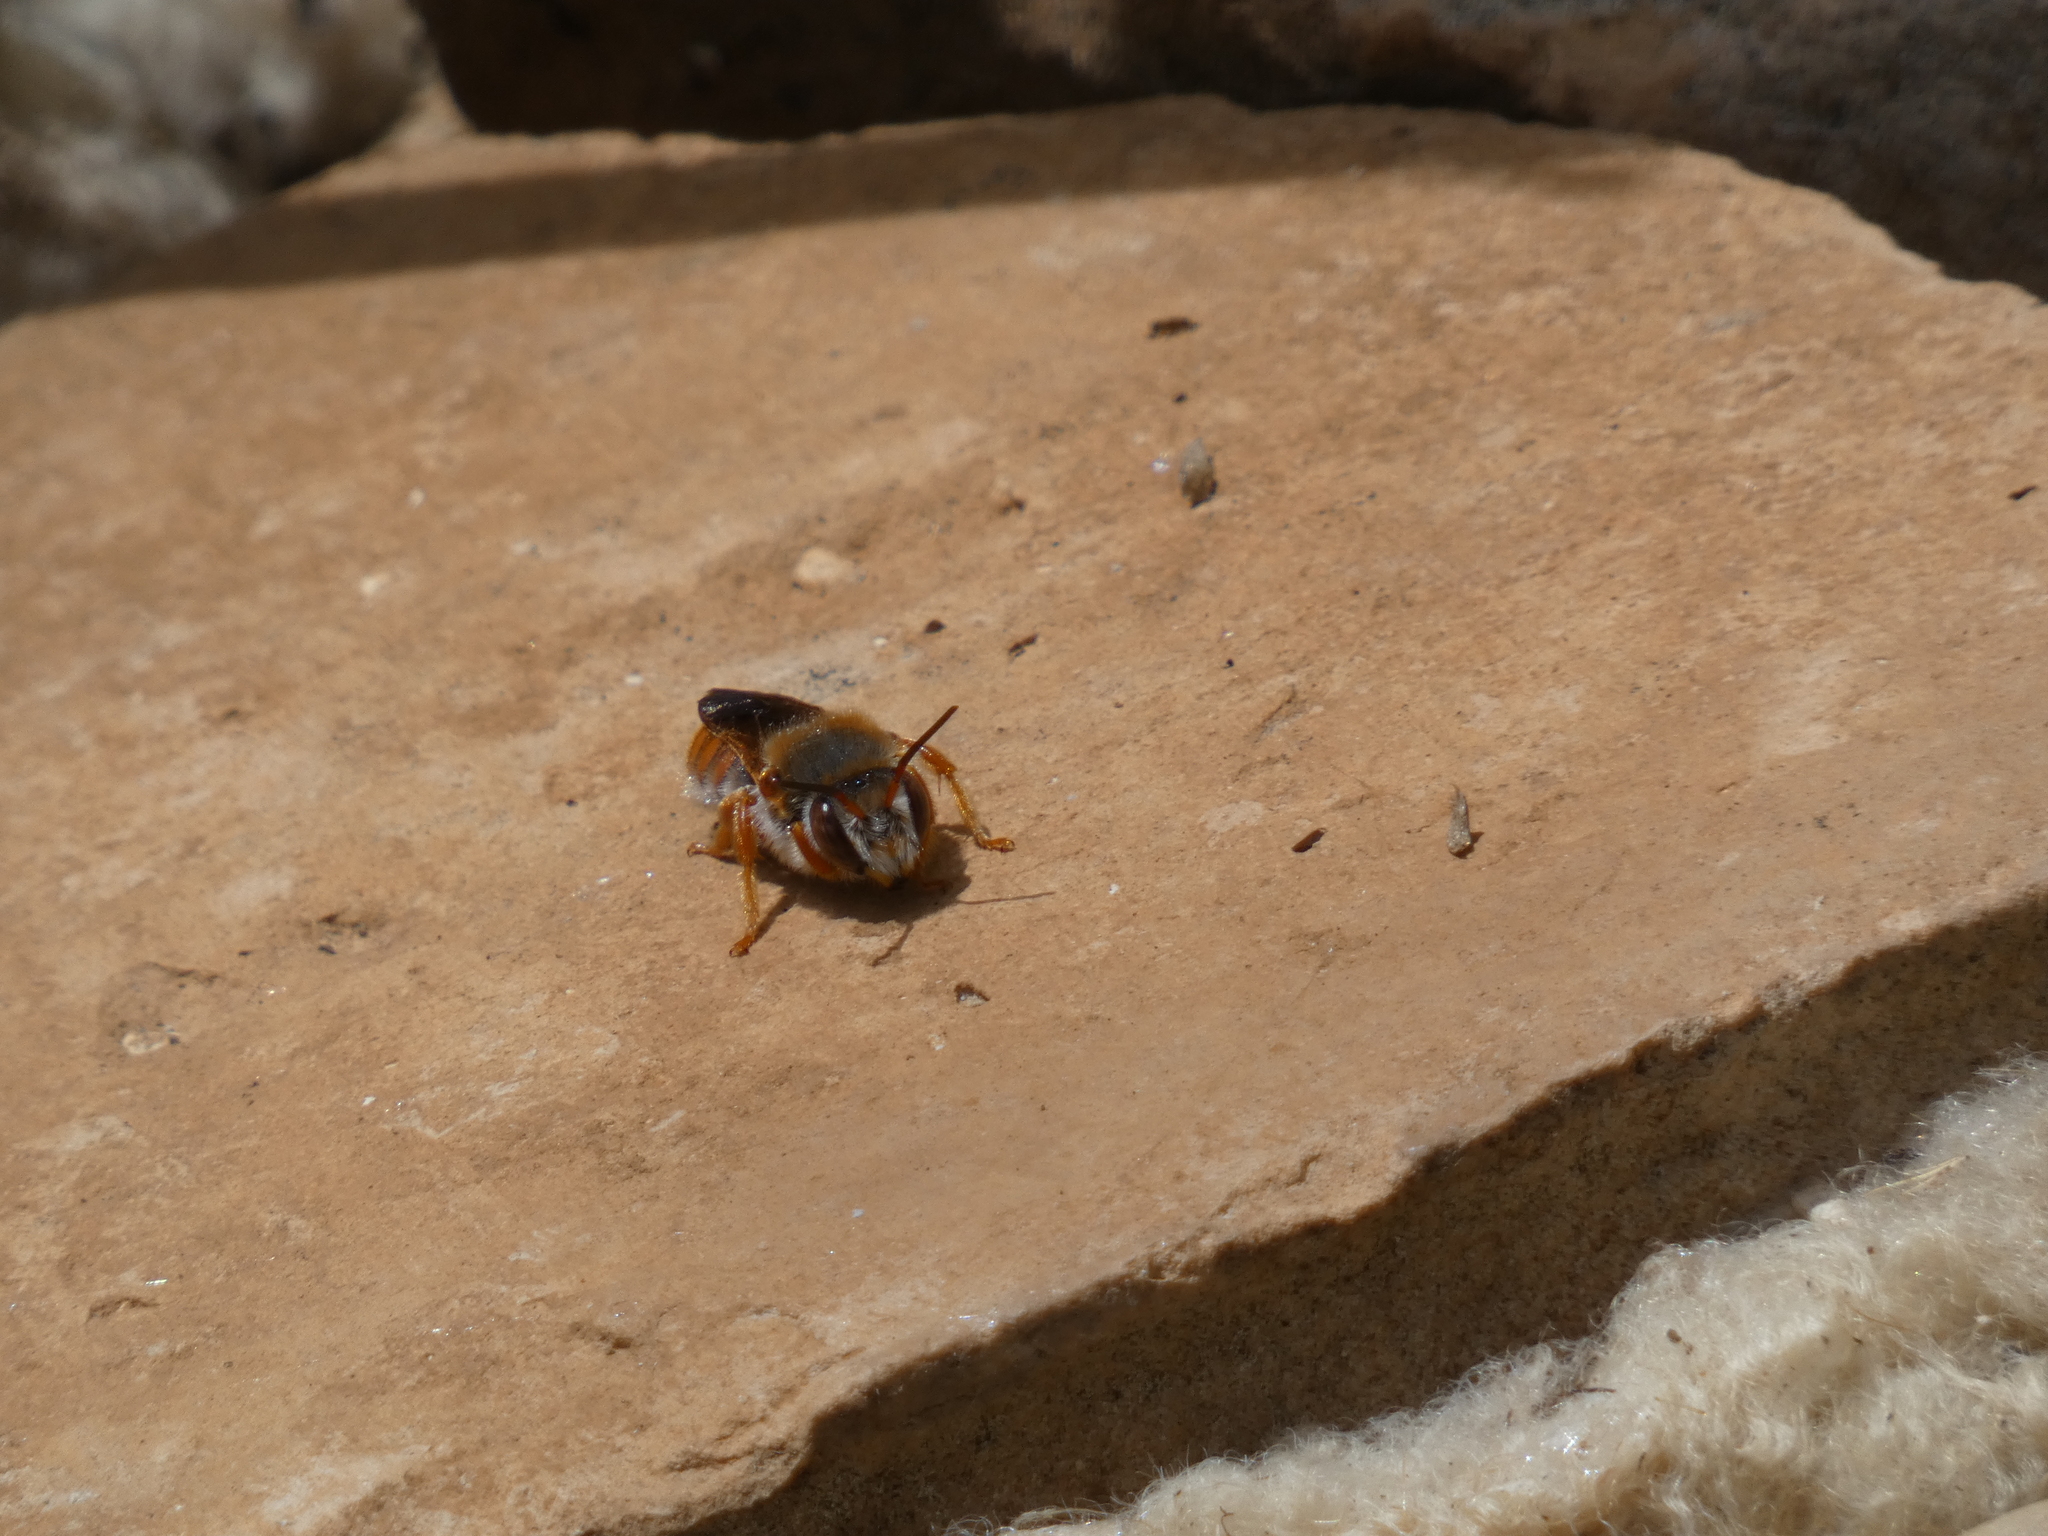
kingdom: Animalia
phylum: Arthropoda
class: Insecta
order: Hymenoptera
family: Megachilidae
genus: Rhodanthidium
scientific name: Rhodanthidium sticticum
